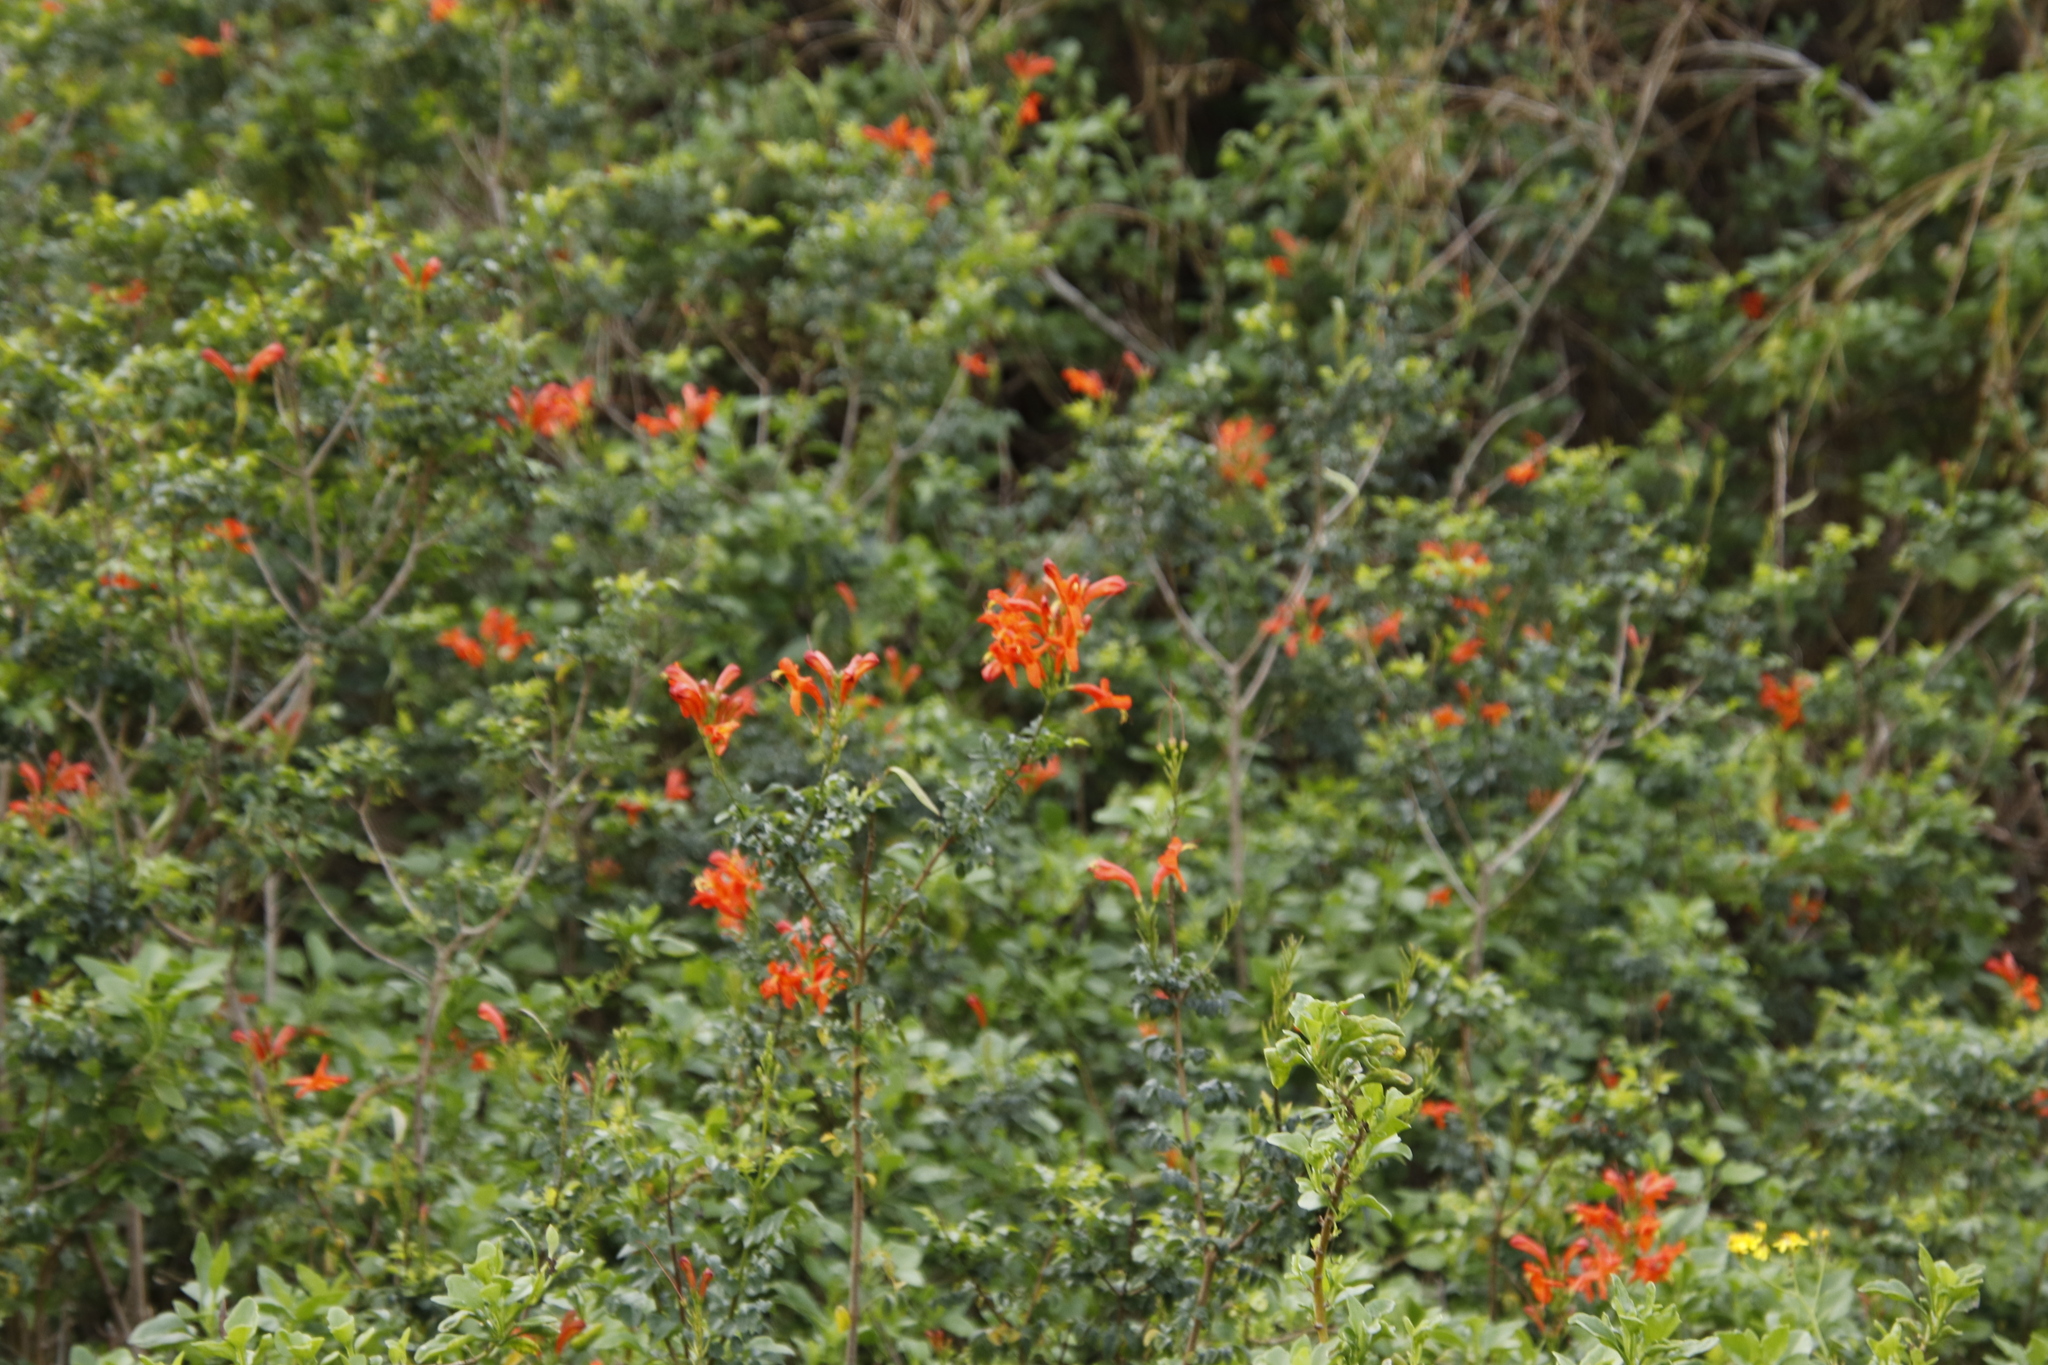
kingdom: Plantae
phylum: Tracheophyta
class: Magnoliopsida
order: Lamiales
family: Bignoniaceae
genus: Tecomaria
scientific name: Tecomaria capensis
